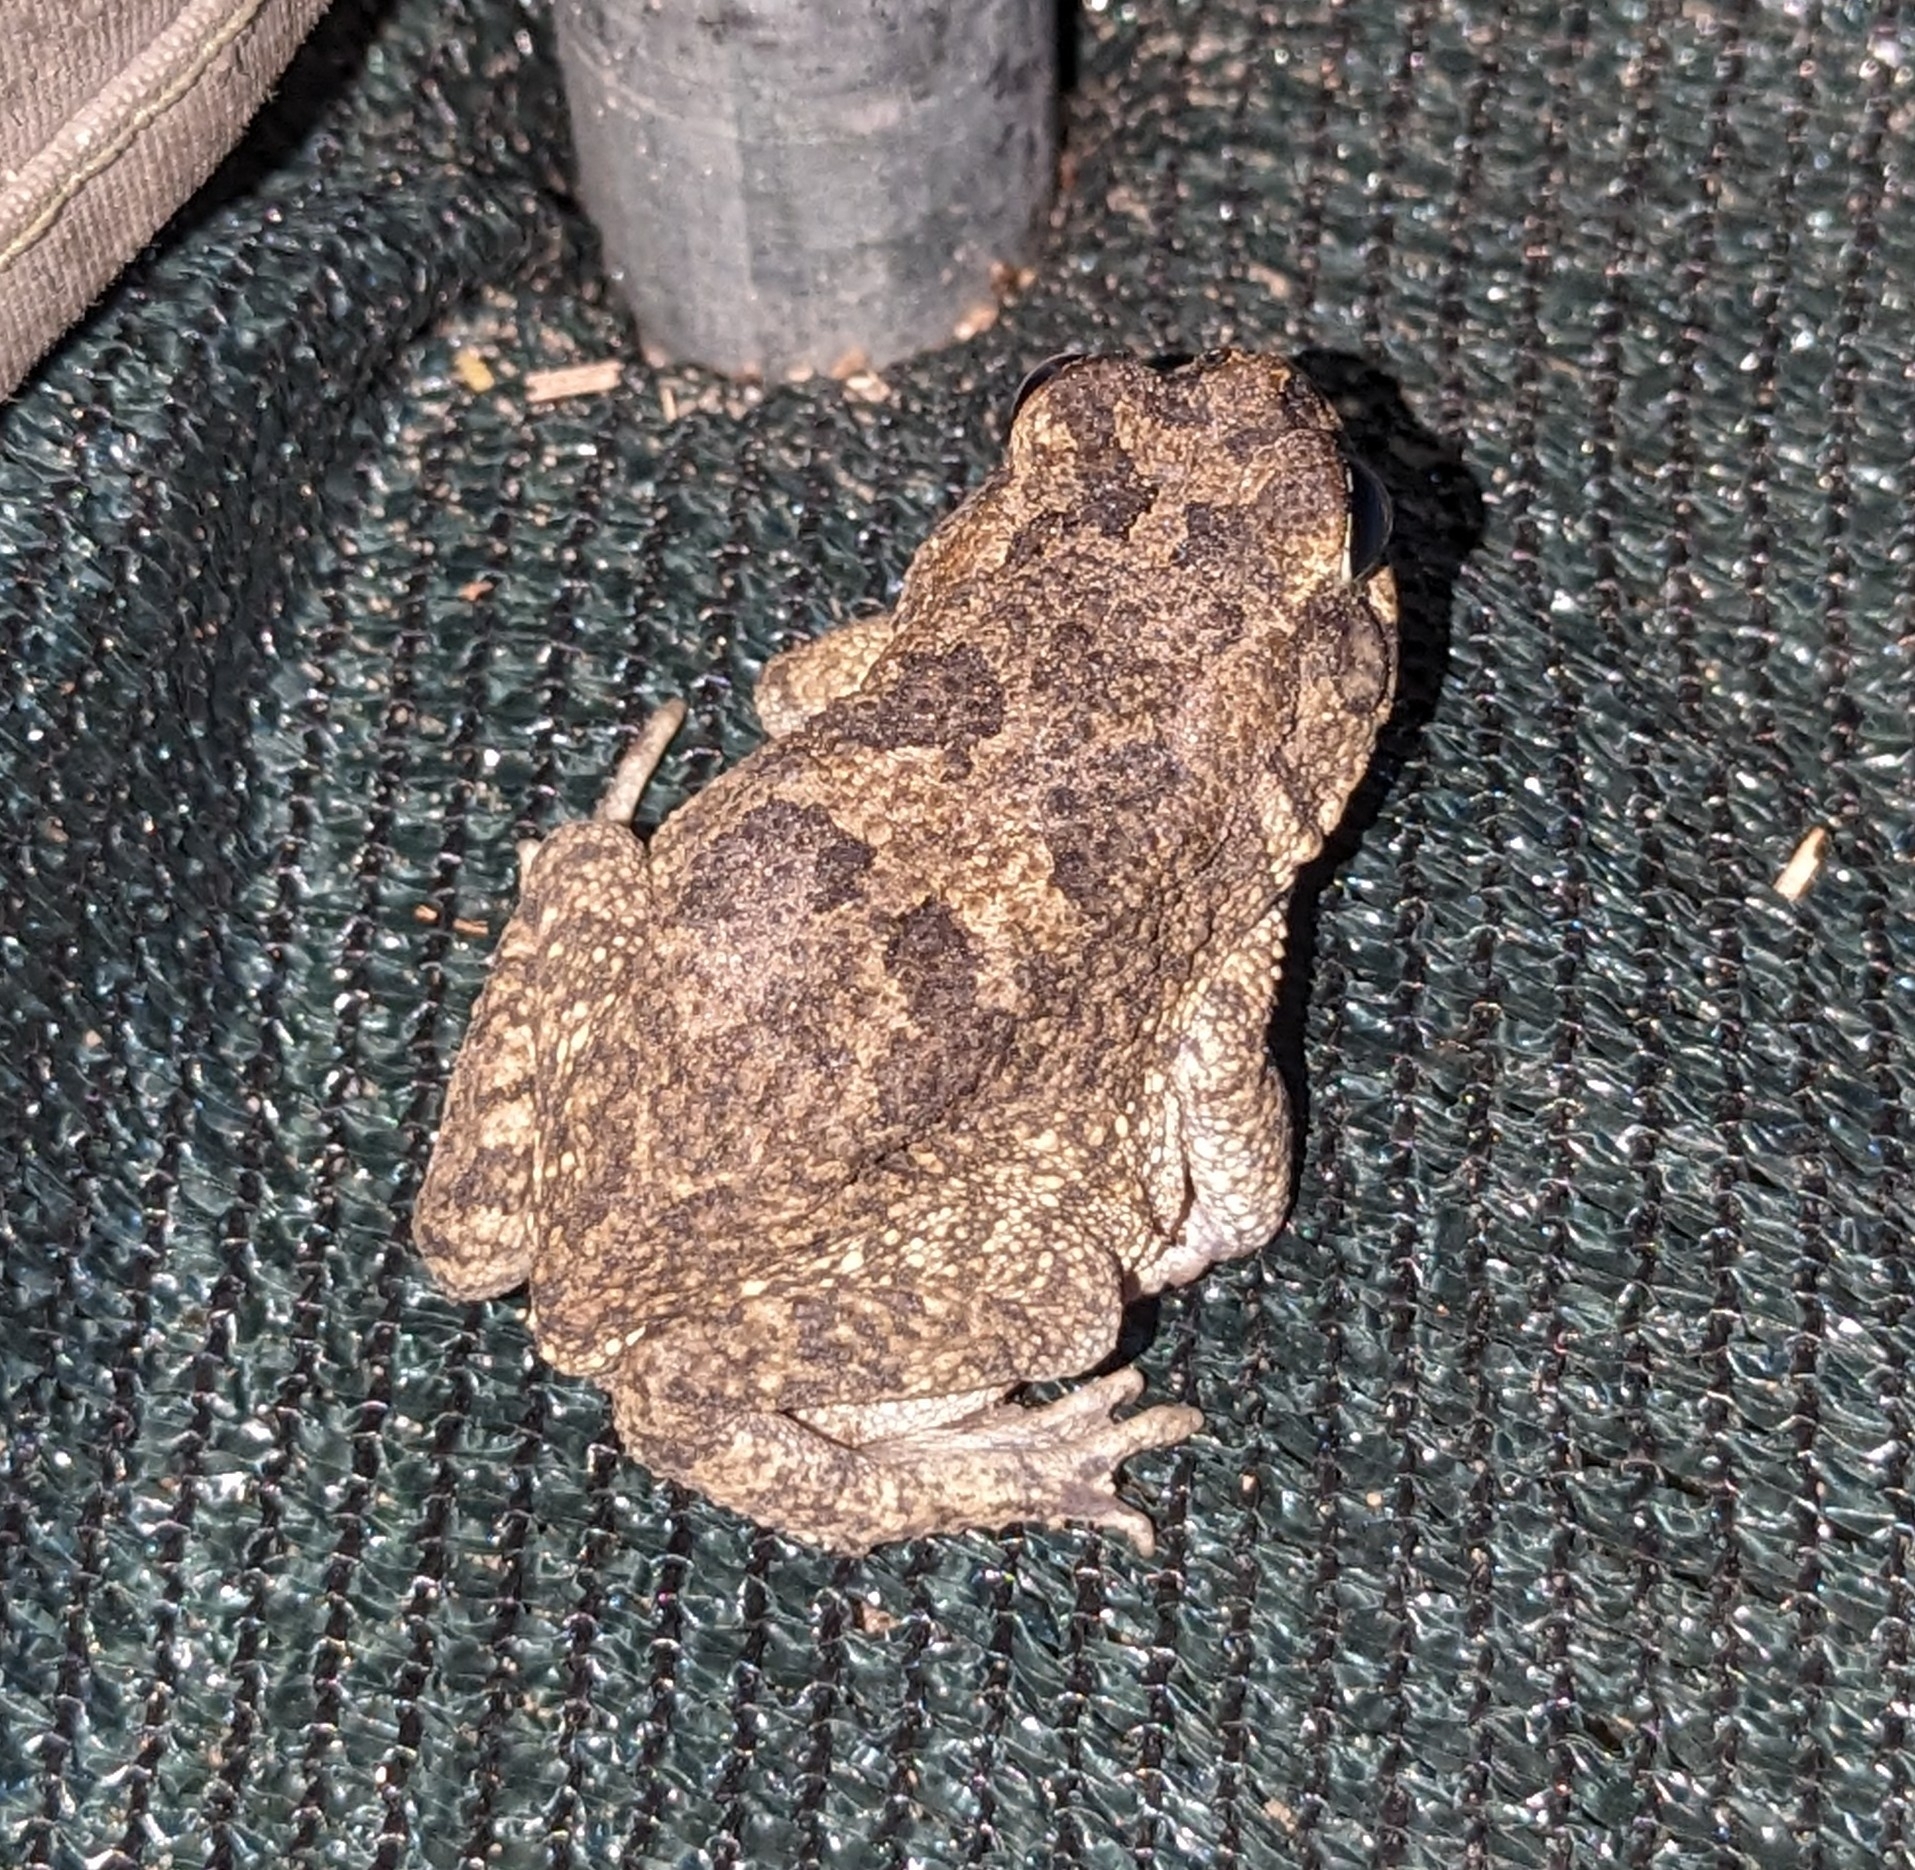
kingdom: Animalia
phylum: Chordata
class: Amphibia
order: Anura
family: Bufonidae
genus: Sclerophrys
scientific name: Sclerophrys pusilla
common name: Merten's striped toad
